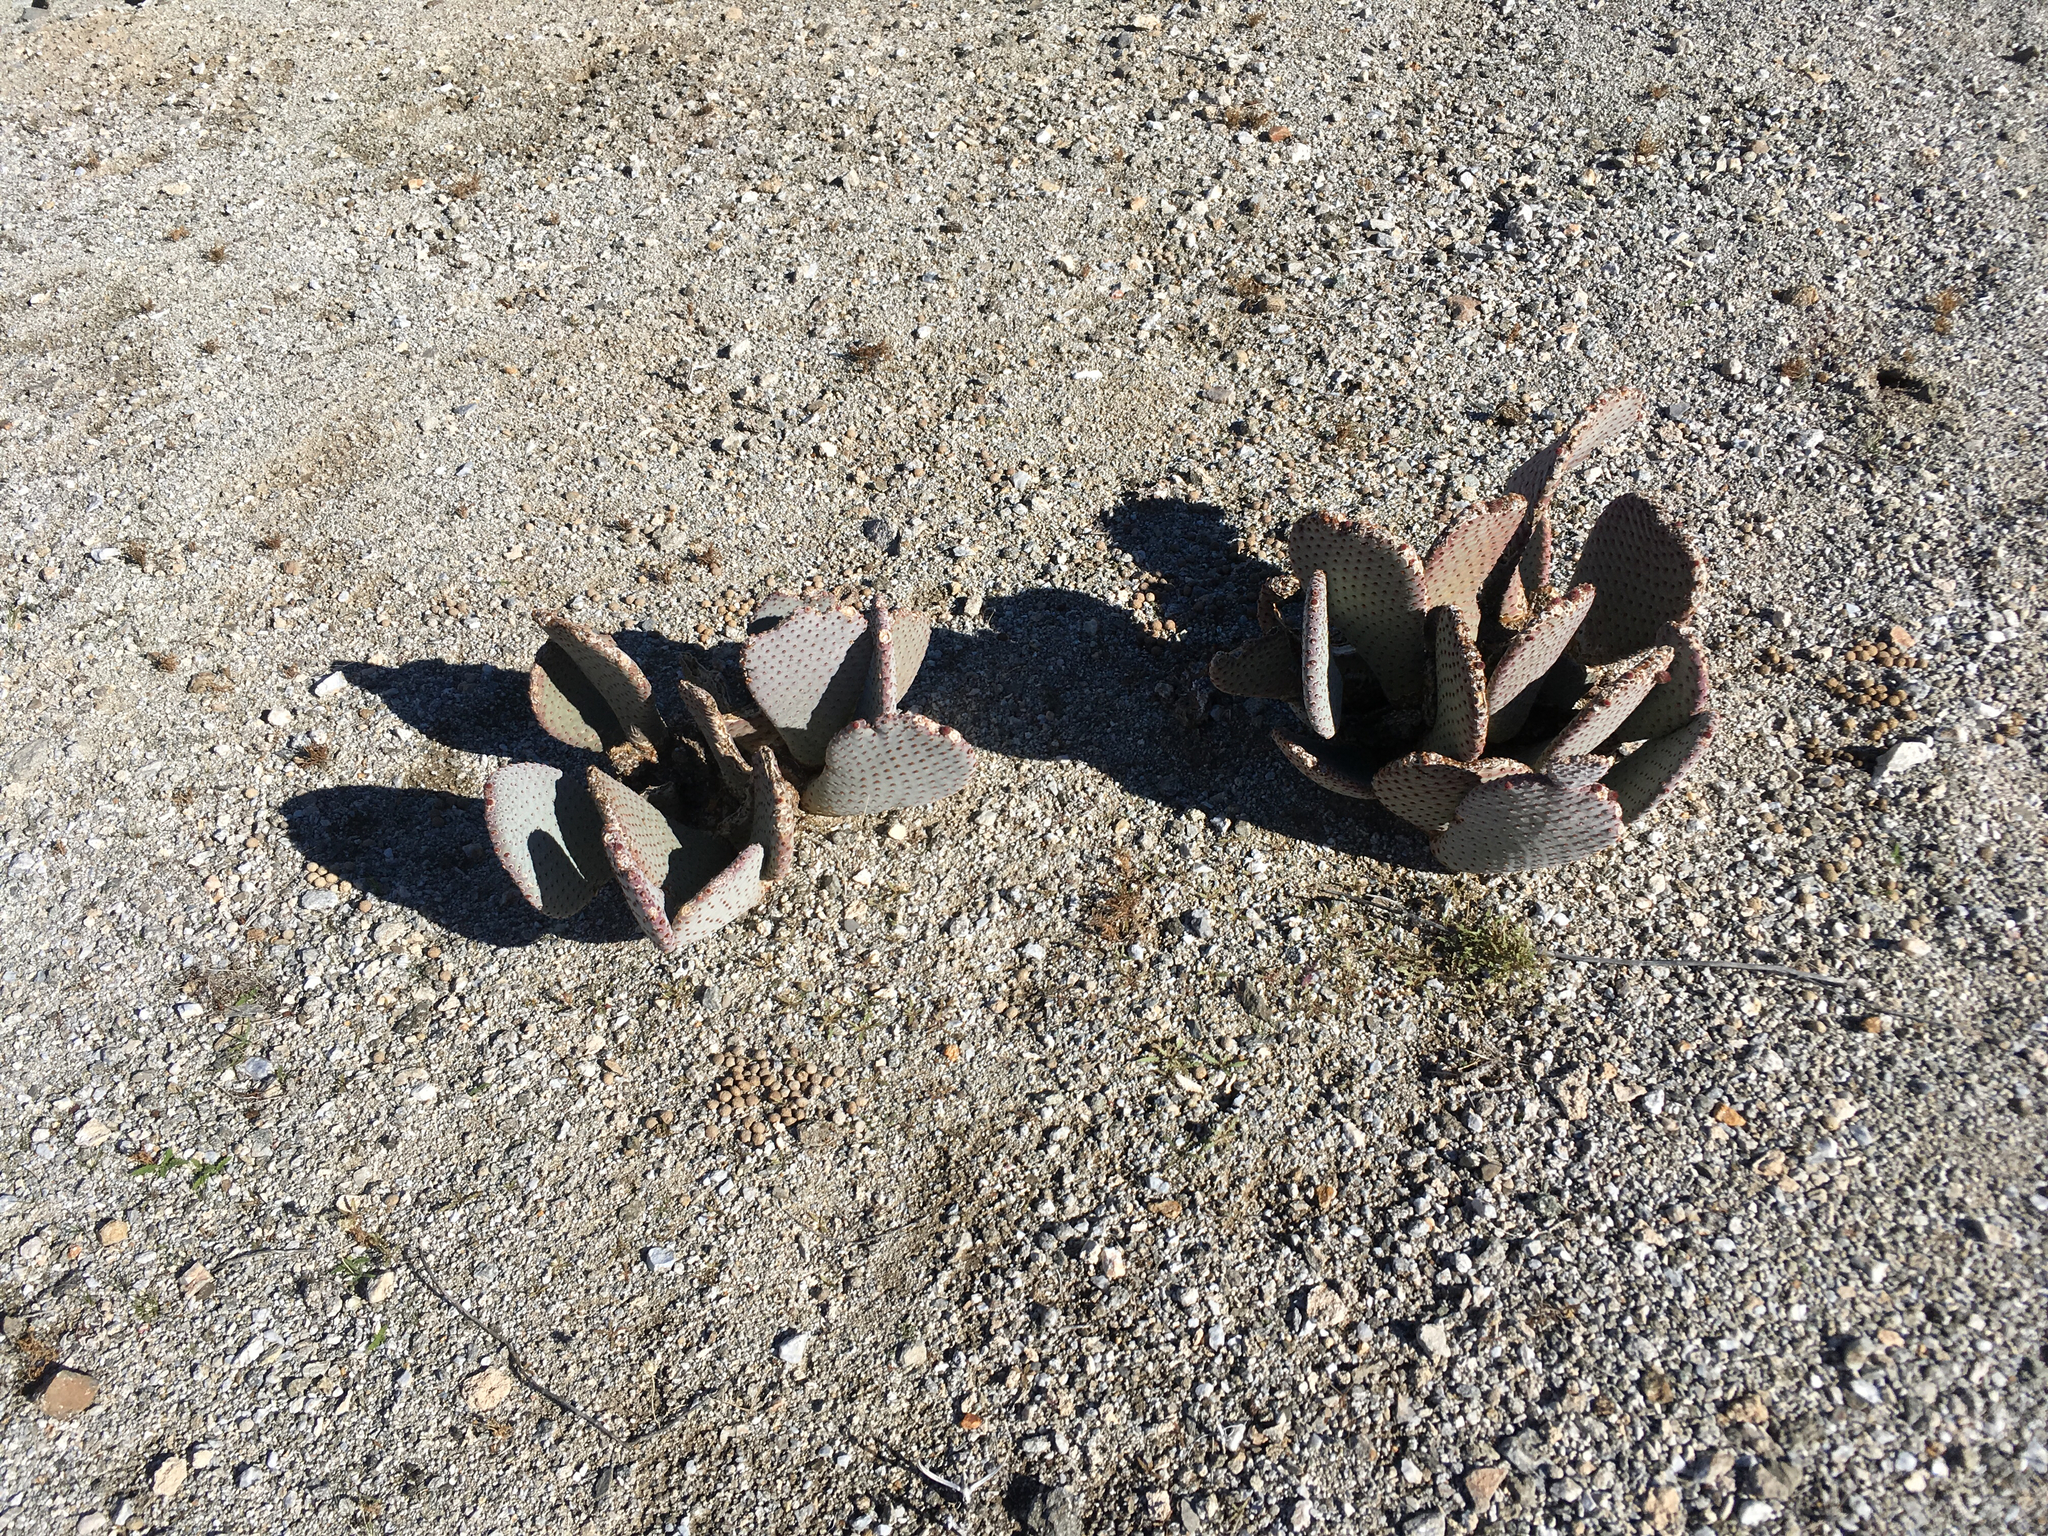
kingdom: Plantae
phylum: Tracheophyta
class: Magnoliopsida
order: Caryophyllales
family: Cactaceae
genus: Opuntia
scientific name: Opuntia basilaris
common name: Beavertail prickly-pear
